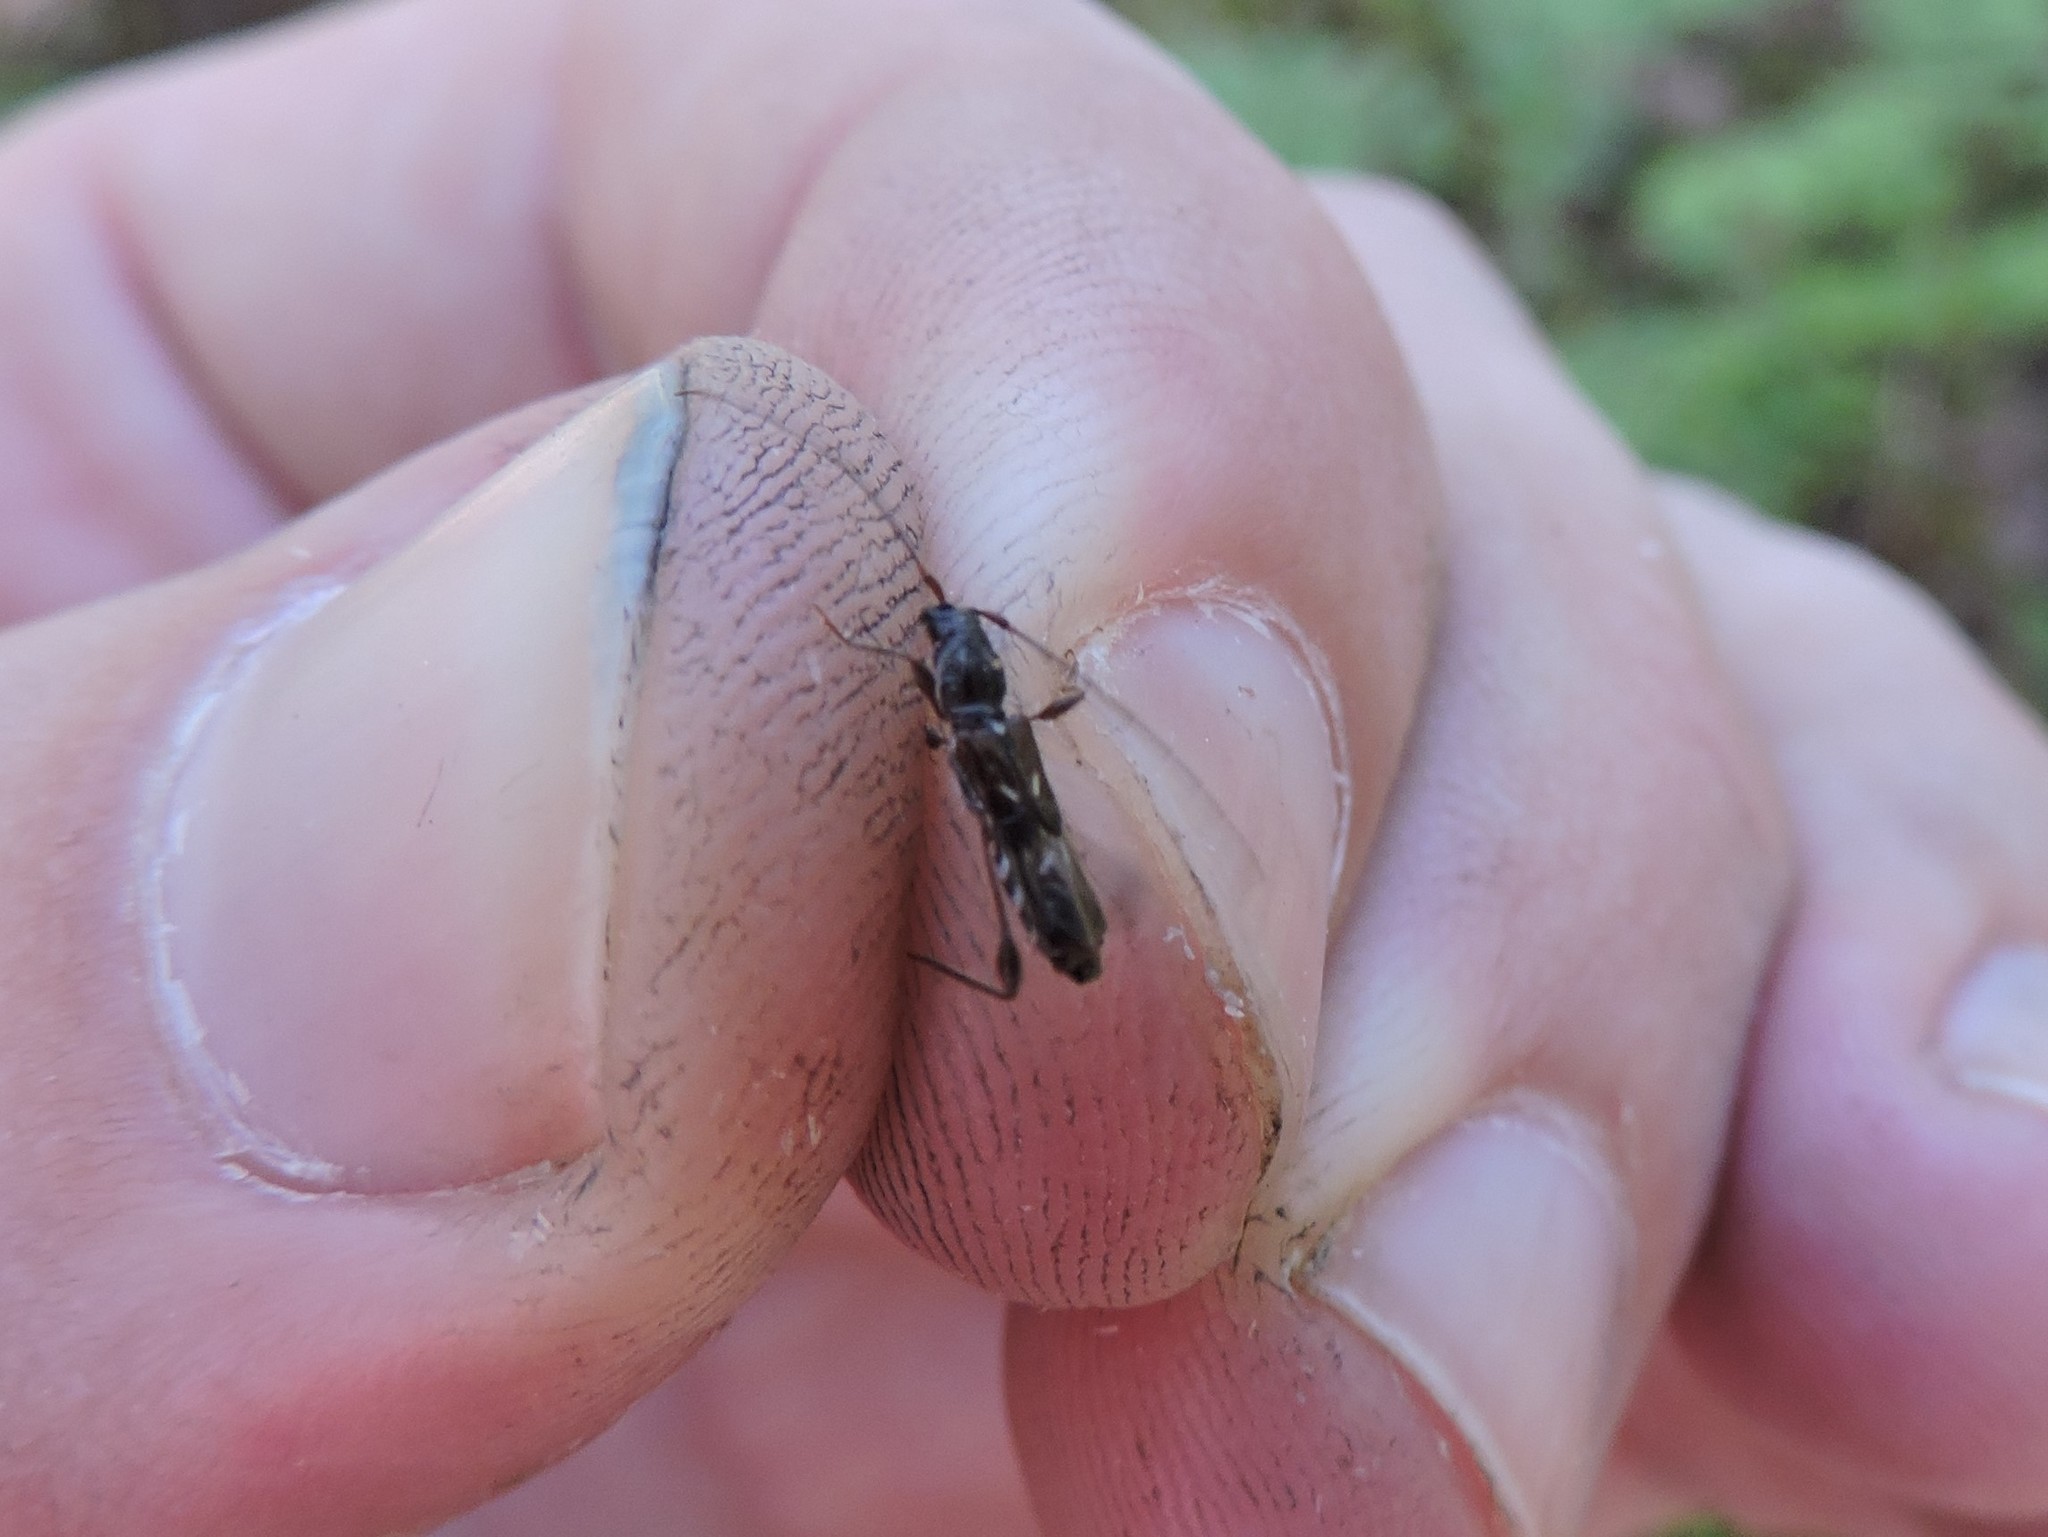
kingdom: Animalia
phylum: Arthropoda
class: Insecta
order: Coleoptera
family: Cerambycidae
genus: Molorchus
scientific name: Molorchus minor
